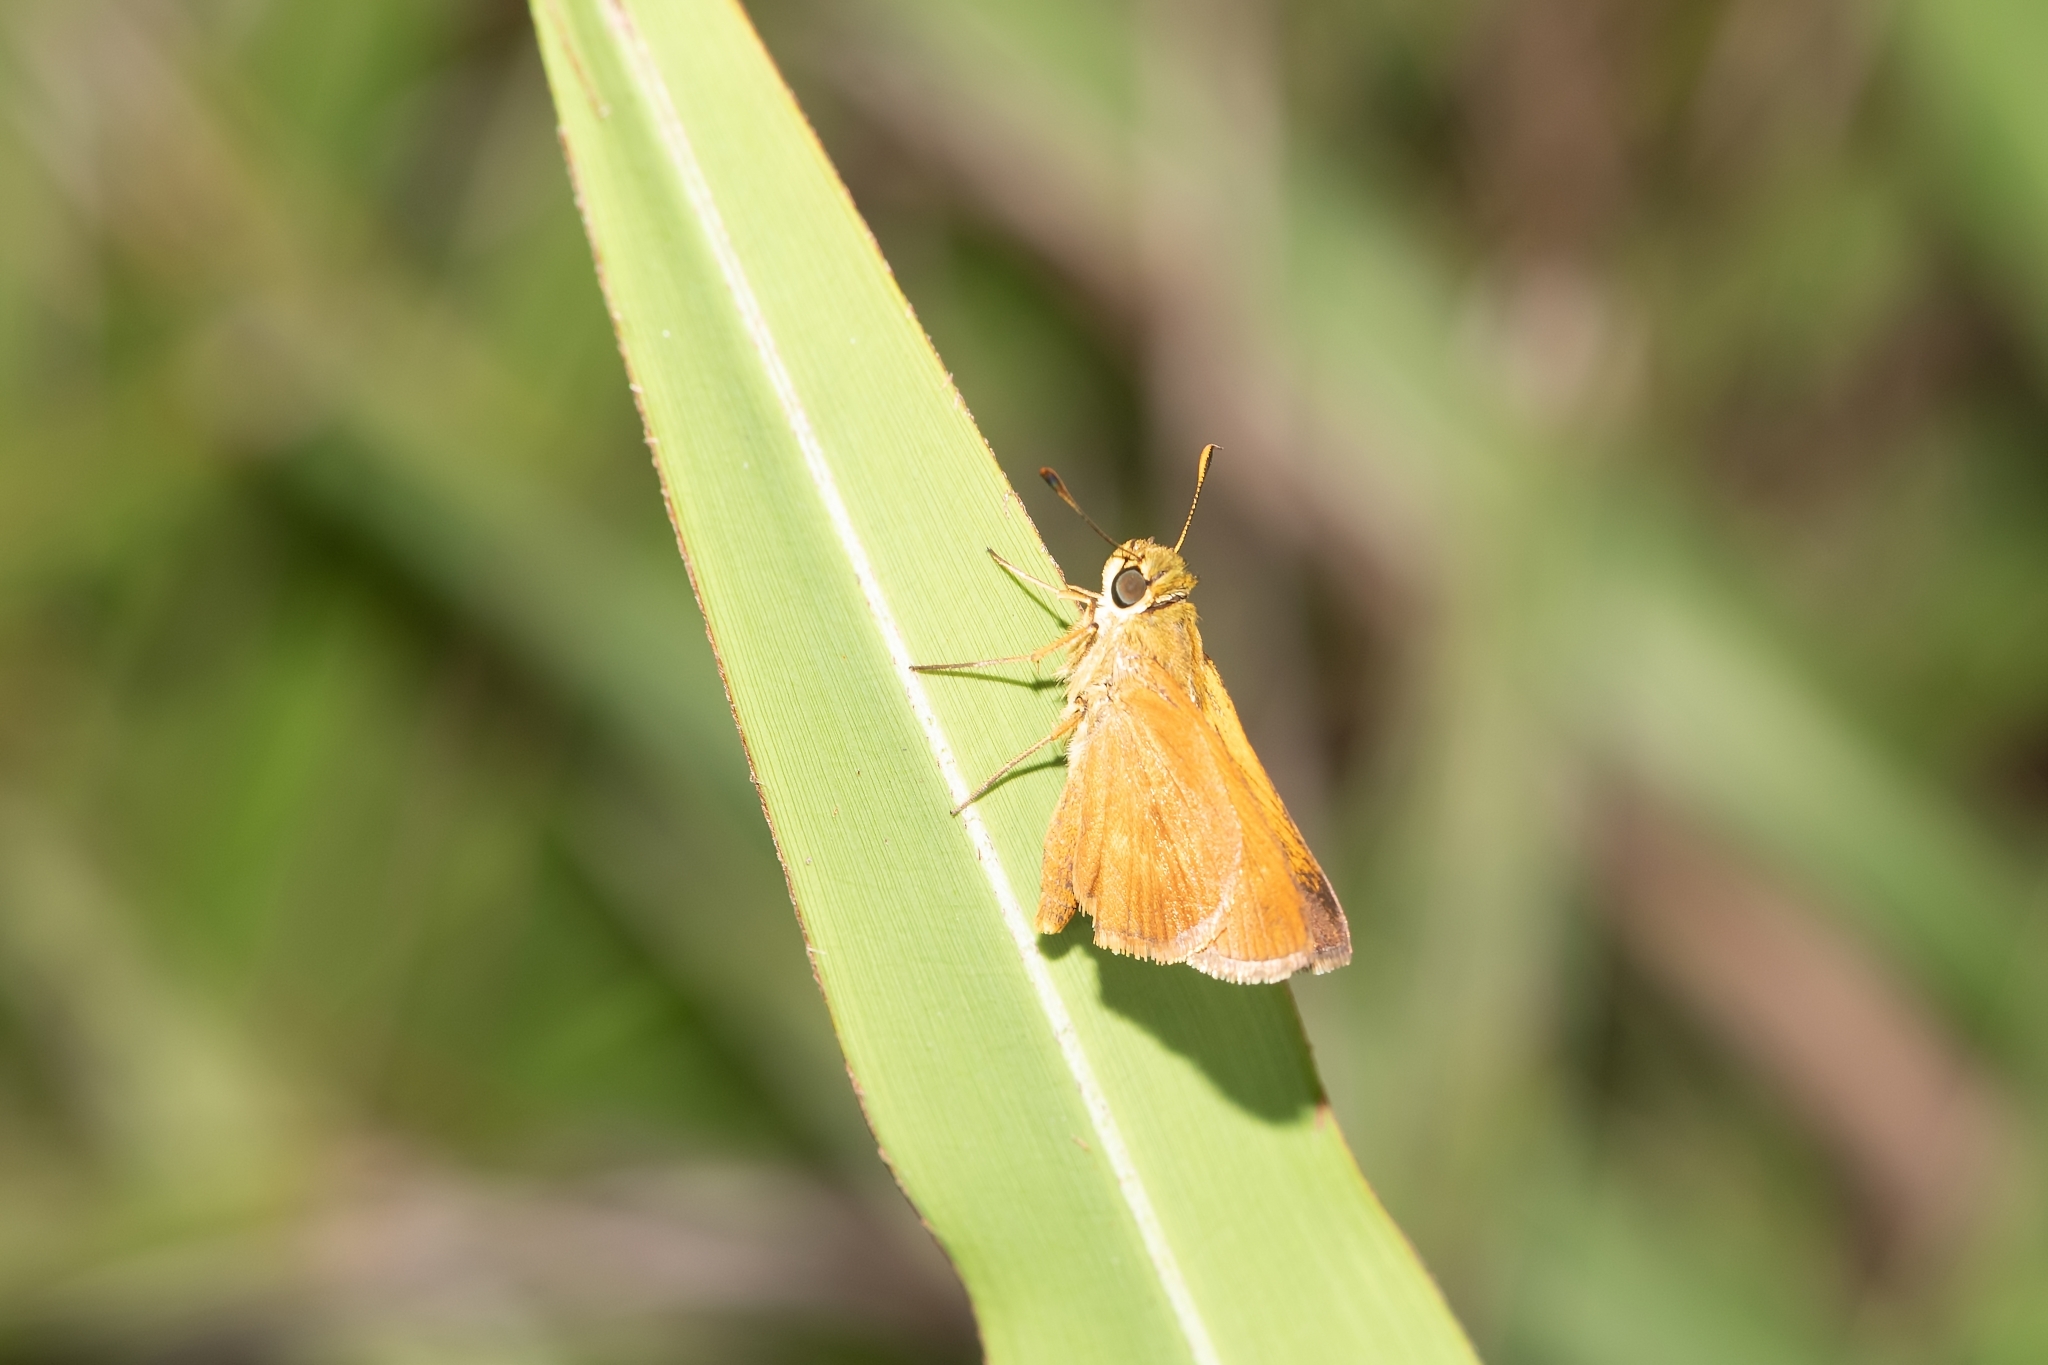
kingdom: Animalia
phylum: Arthropoda
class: Insecta
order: Lepidoptera
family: Hesperiidae
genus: Polites
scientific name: Polites otho
